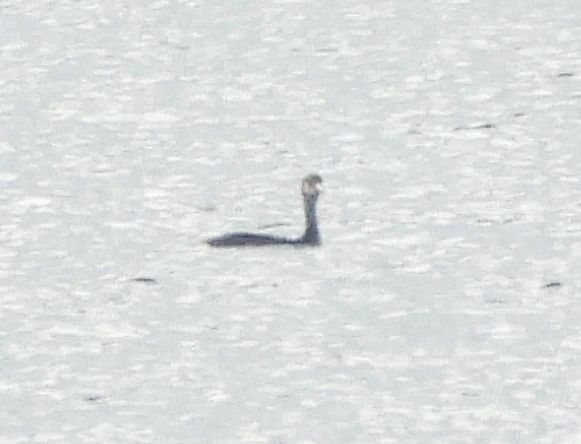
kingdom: Animalia
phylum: Chordata
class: Aves
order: Podicipediformes
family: Podicipedidae
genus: Podiceps
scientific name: Podiceps grisegena
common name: Red-necked grebe
